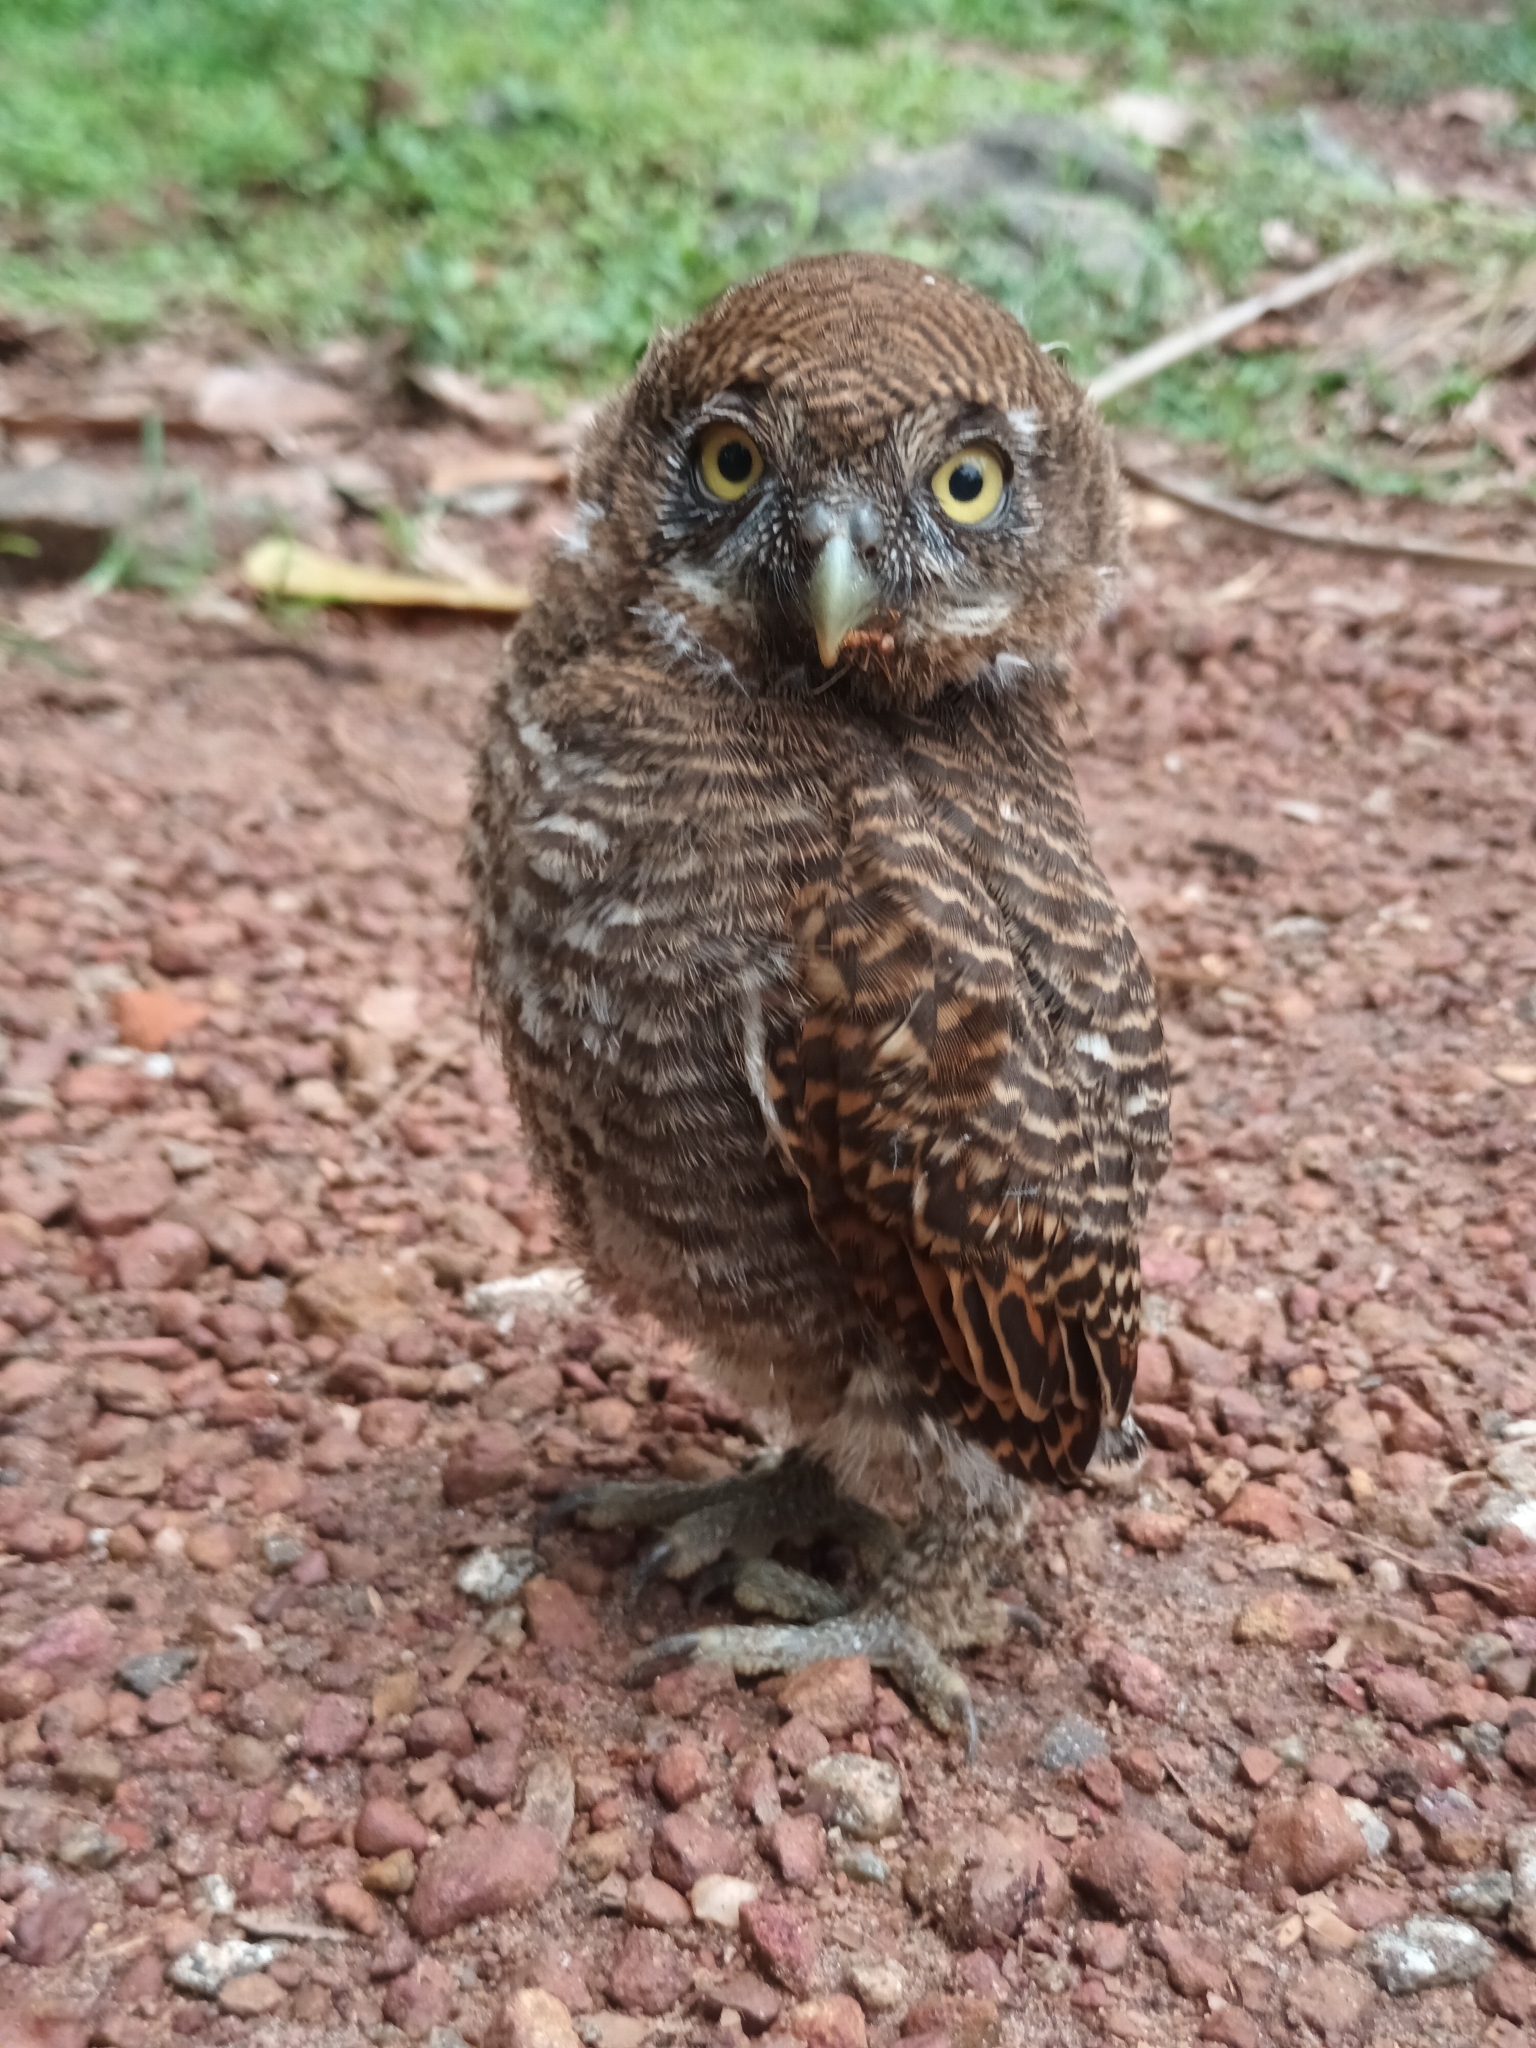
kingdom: Animalia
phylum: Chordata
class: Aves
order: Strigiformes
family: Strigidae
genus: Glaucidium
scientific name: Glaucidium radiatum
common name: Jungle owlet
